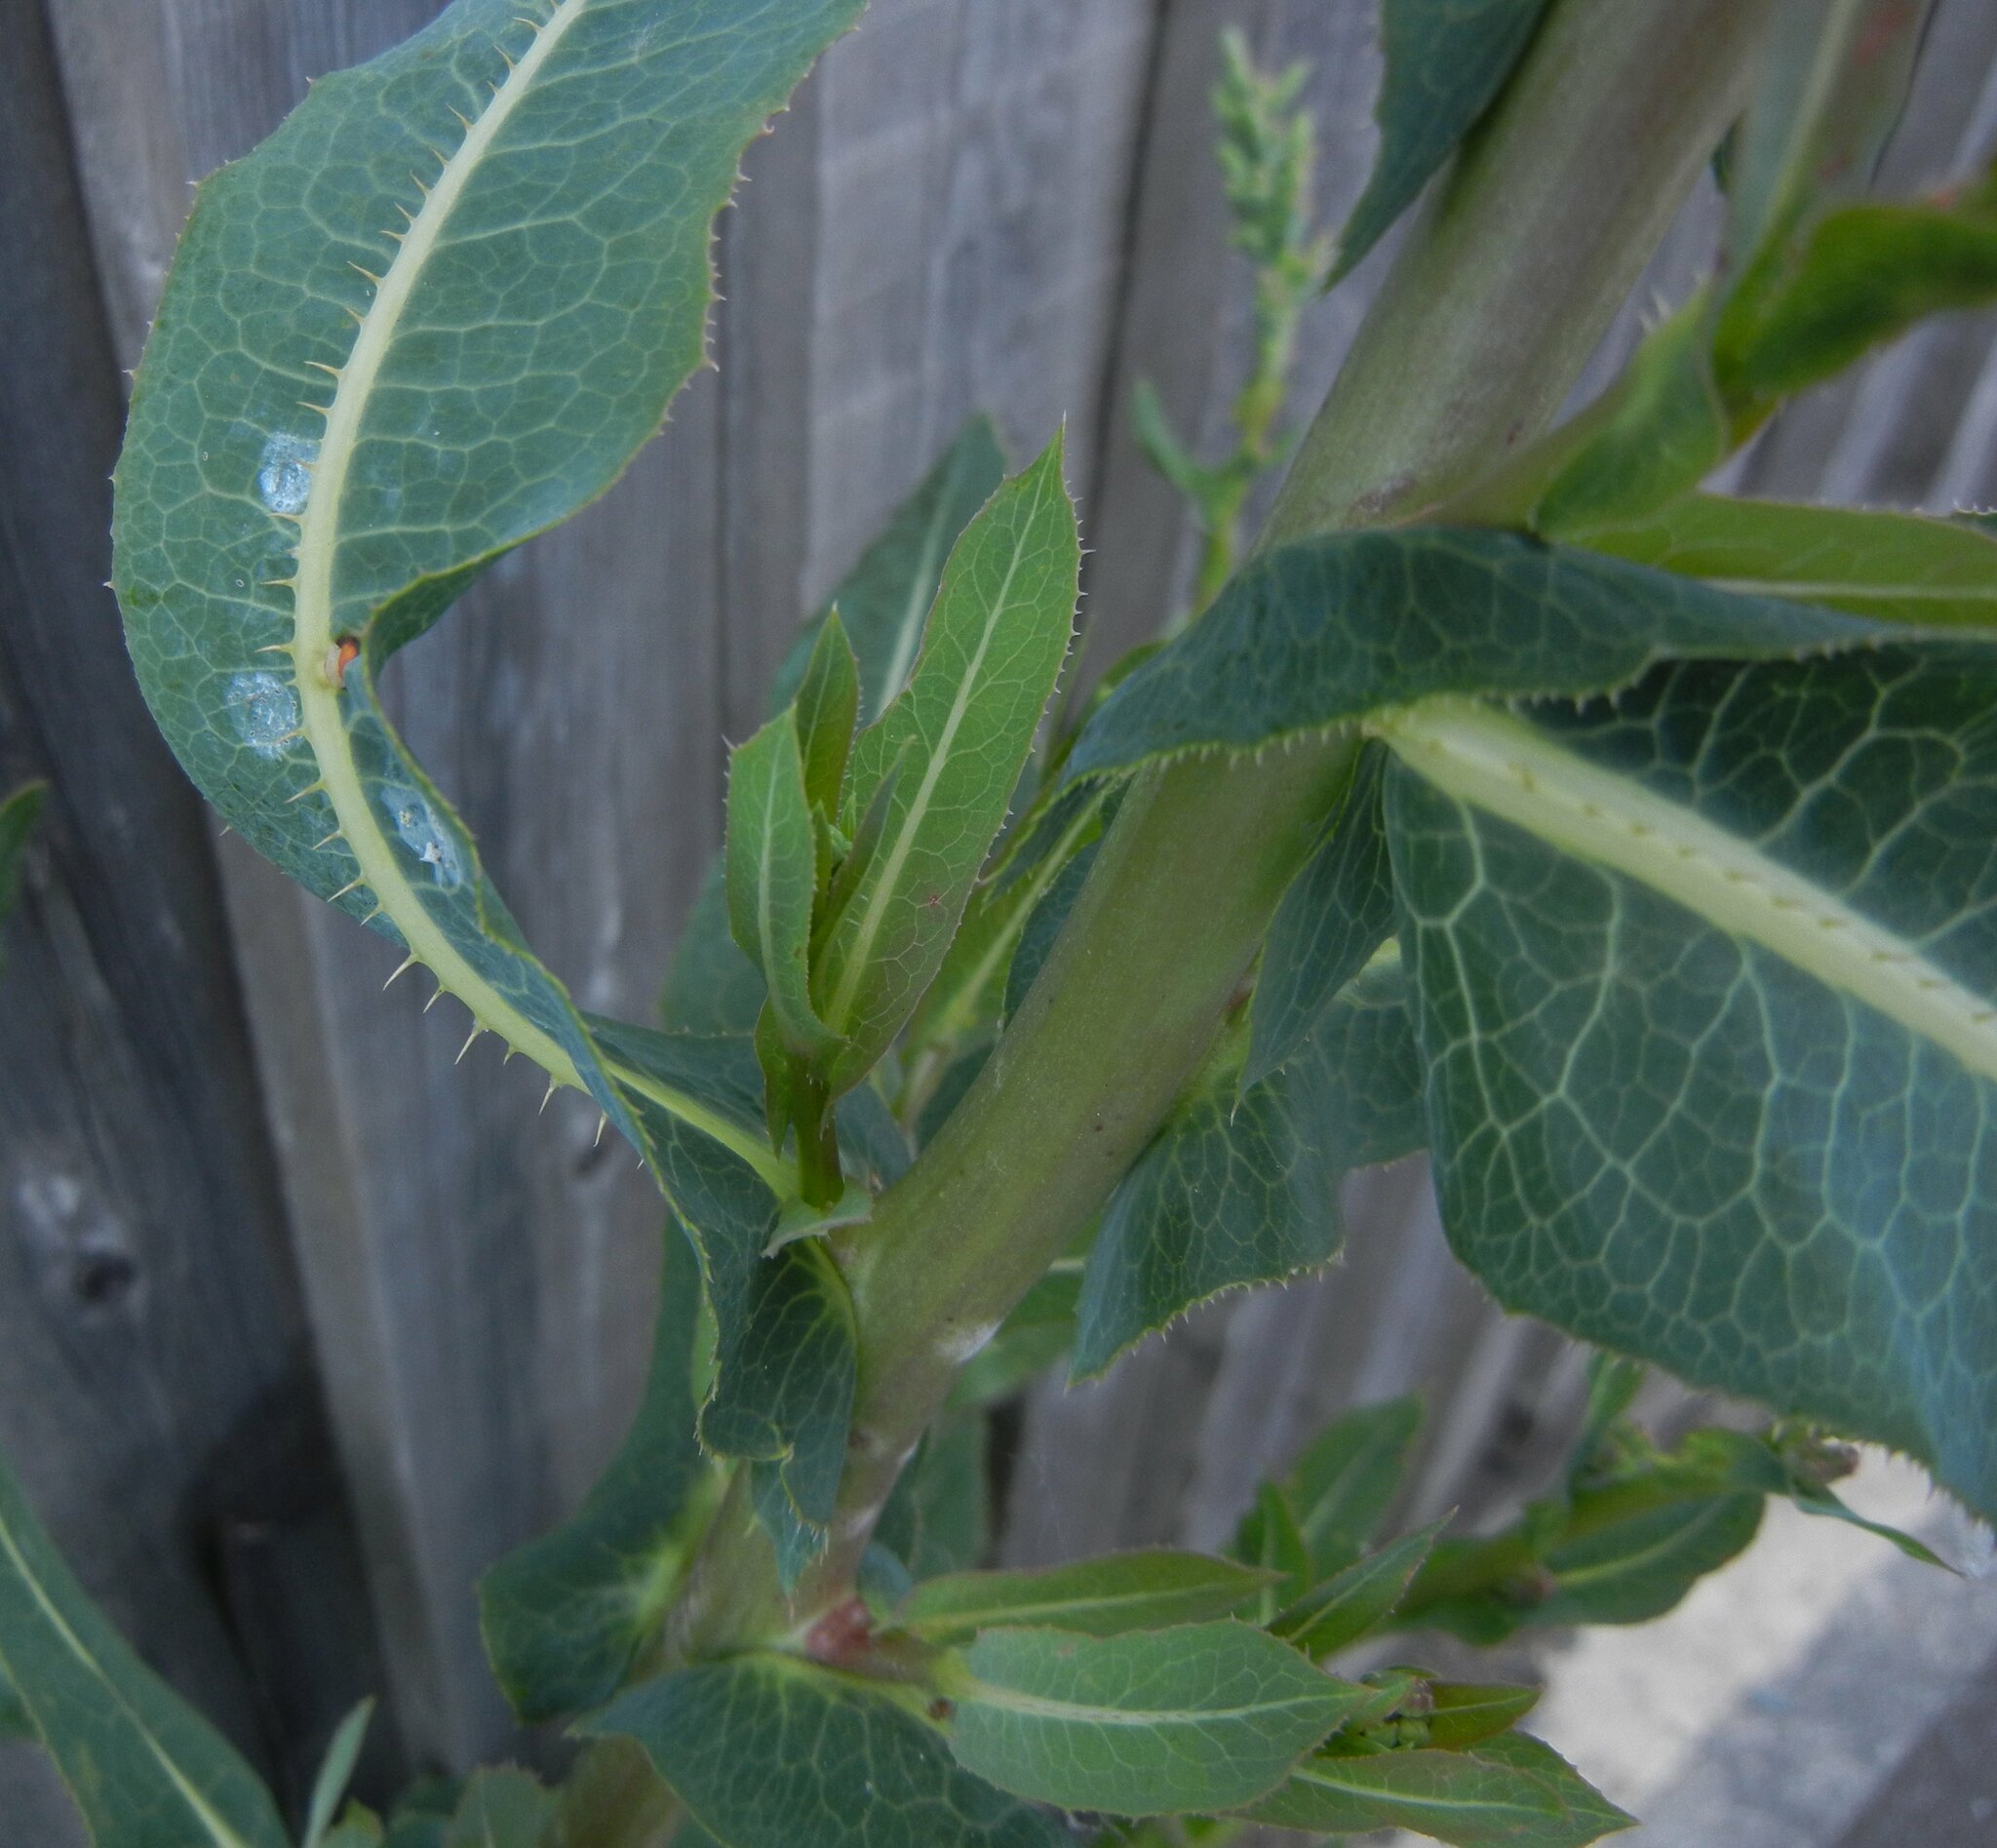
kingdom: Plantae
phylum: Tracheophyta
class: Magnoliopsida
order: Asterales
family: Asteraceae
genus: Lactuca
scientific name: Lactuca serriola
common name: Prickly lettuce
